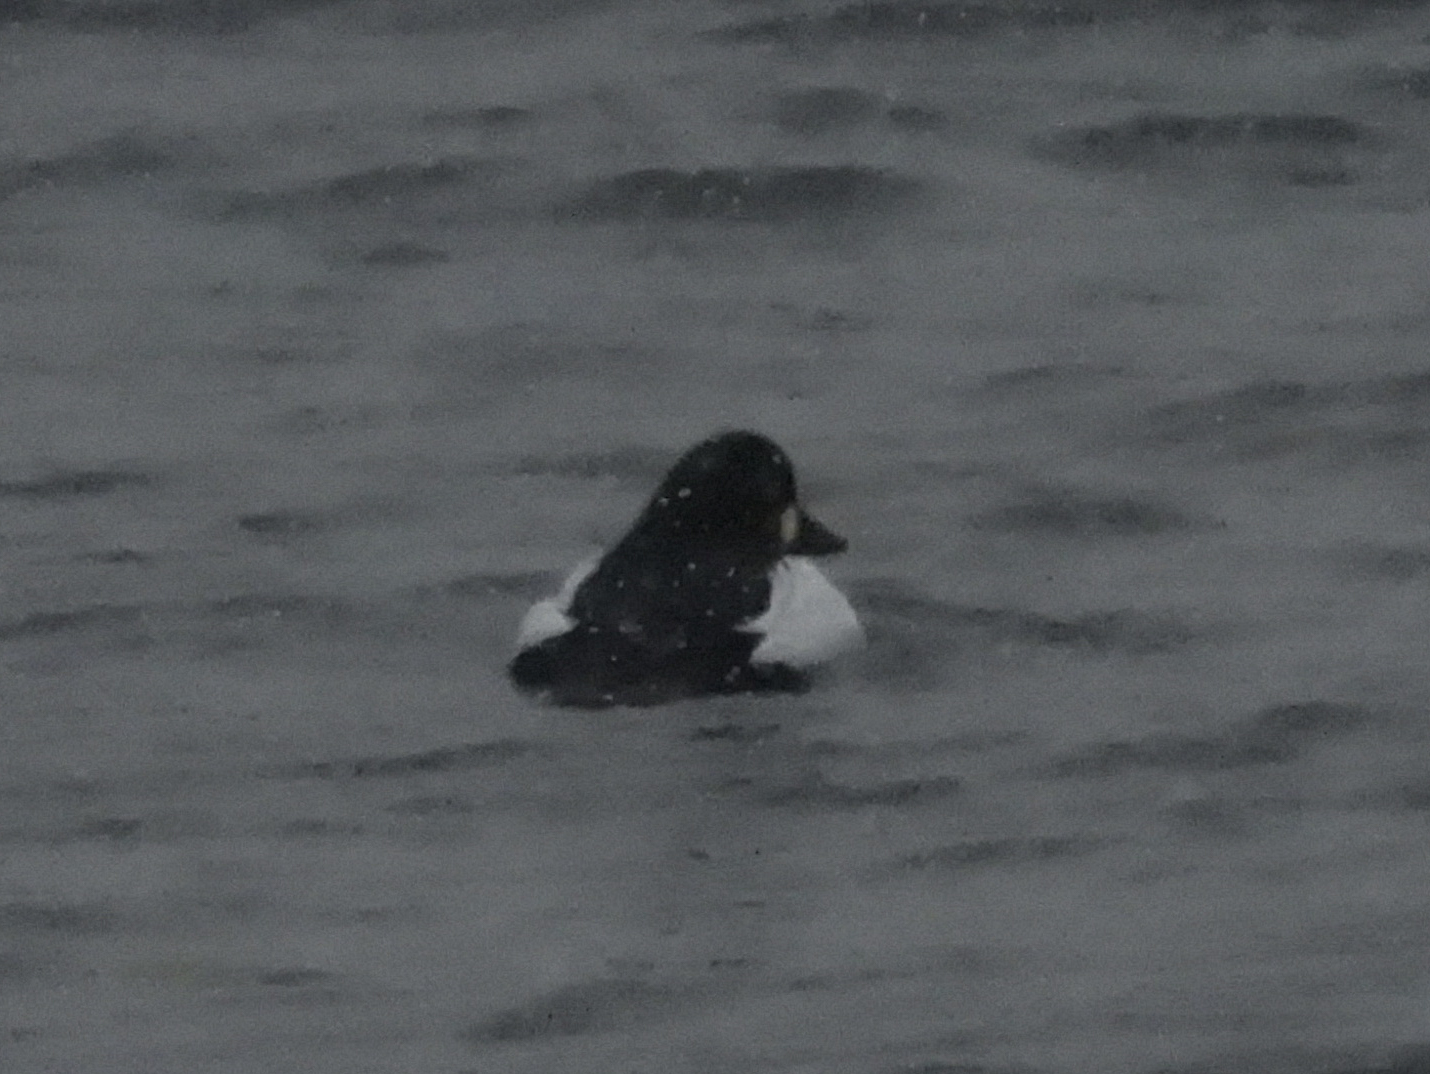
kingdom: Animalia
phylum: Chordata
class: Aves
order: Anseriformes
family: Anatidae
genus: Bucephala
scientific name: Bucephala clangula
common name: Common goldeneye
